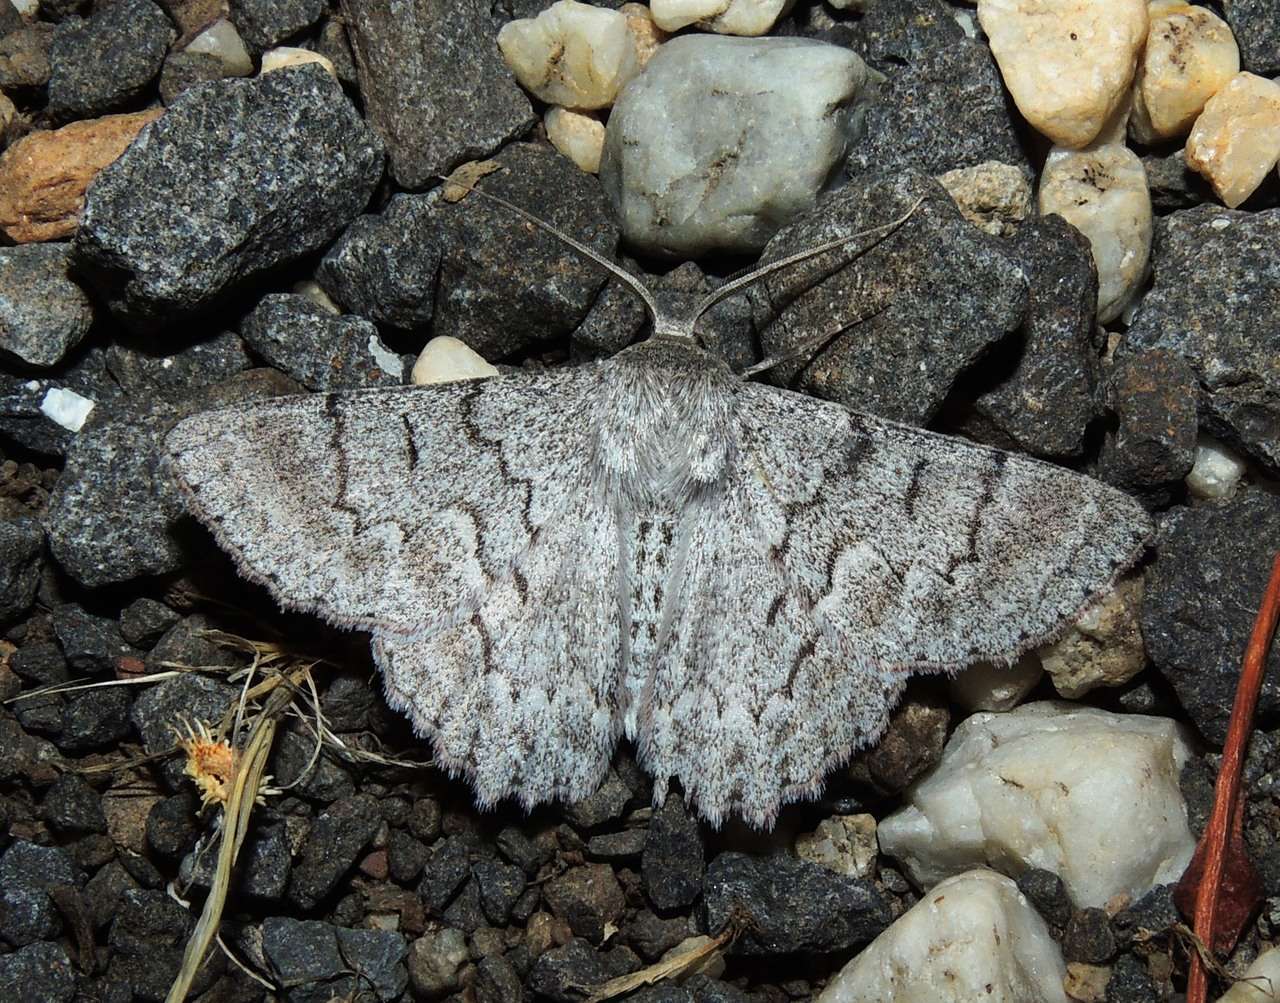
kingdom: Animalia
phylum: Arthropoda
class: Insecta
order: Lepidoptera
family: Geometridae
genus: Crypsiphona
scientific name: Crypsiphona ocultaria
